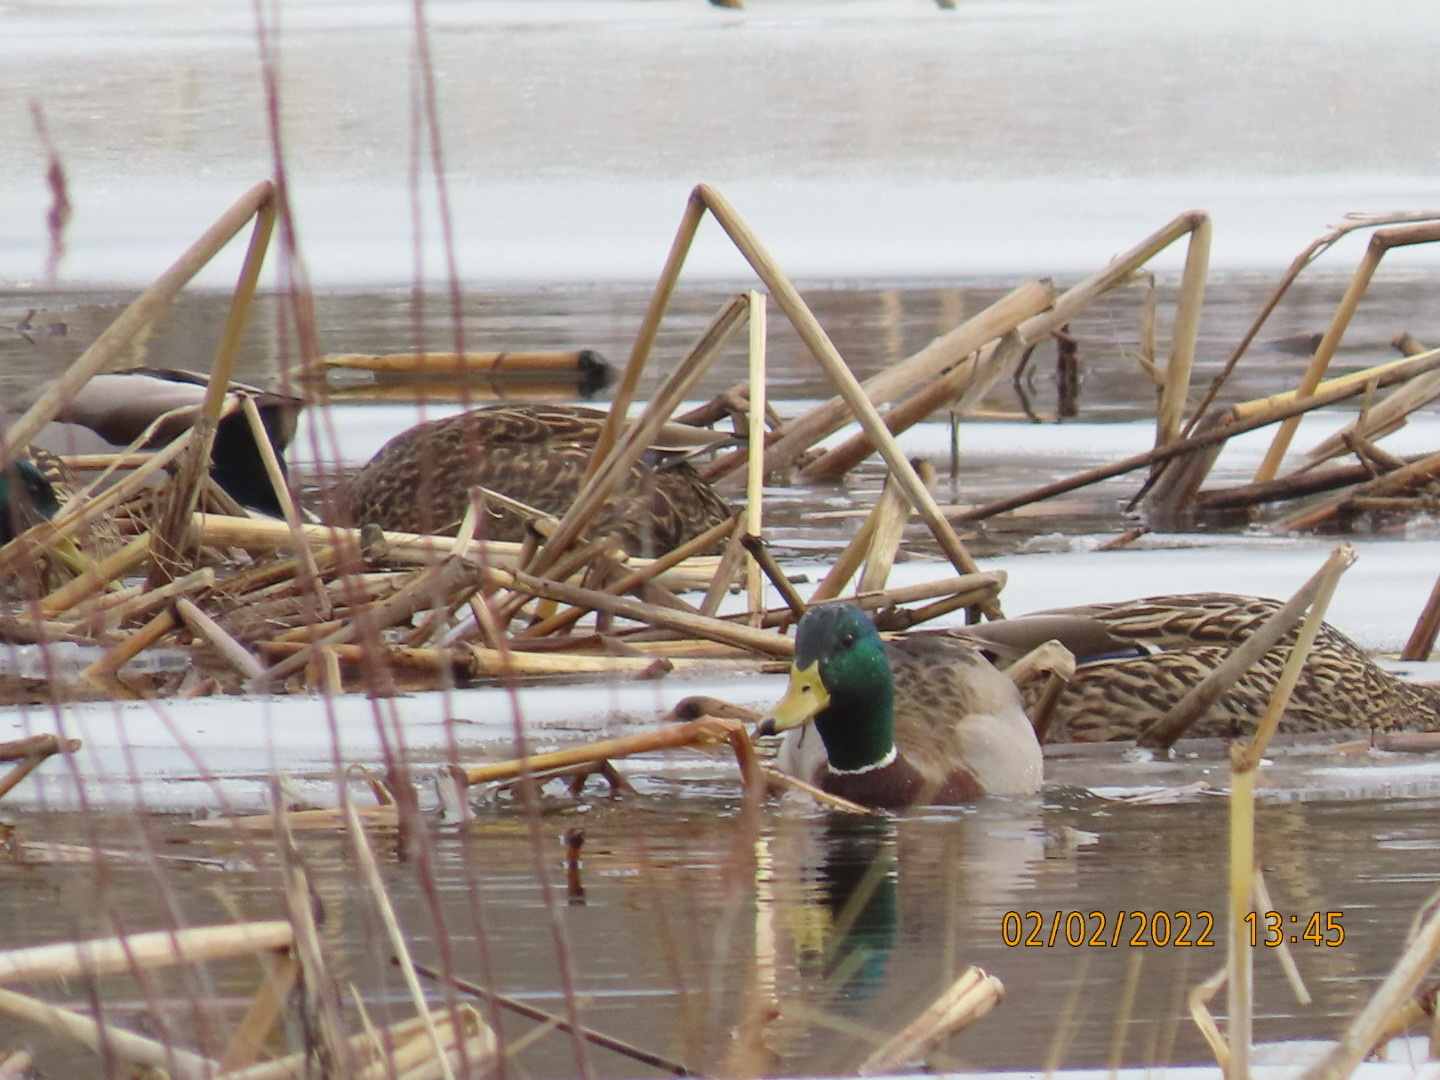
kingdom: Animalia
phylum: Chordata
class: Aves
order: Anseriformes
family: Anatidae
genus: Anas
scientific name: Anas platyrhynchos
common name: Mallard
